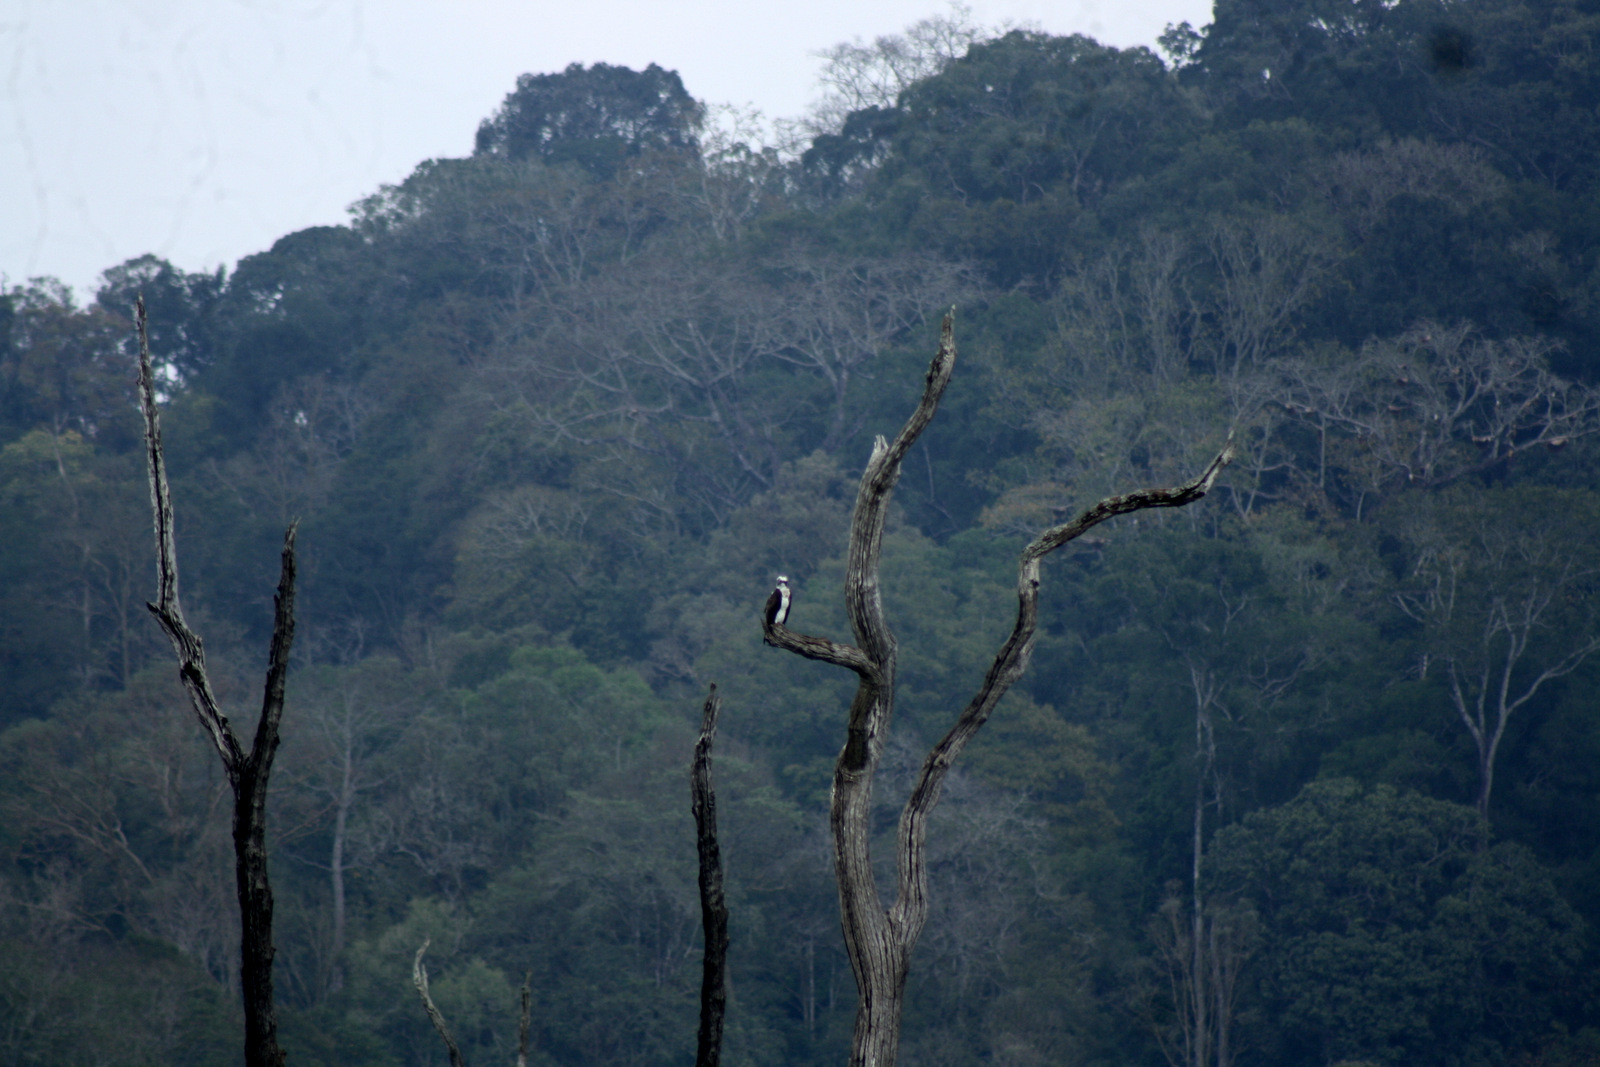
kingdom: Animalia
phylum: Chordata
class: Aves
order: Accipitriformes
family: Pandionidae
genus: Pandion
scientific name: Pandion haliaetus
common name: Osprey
